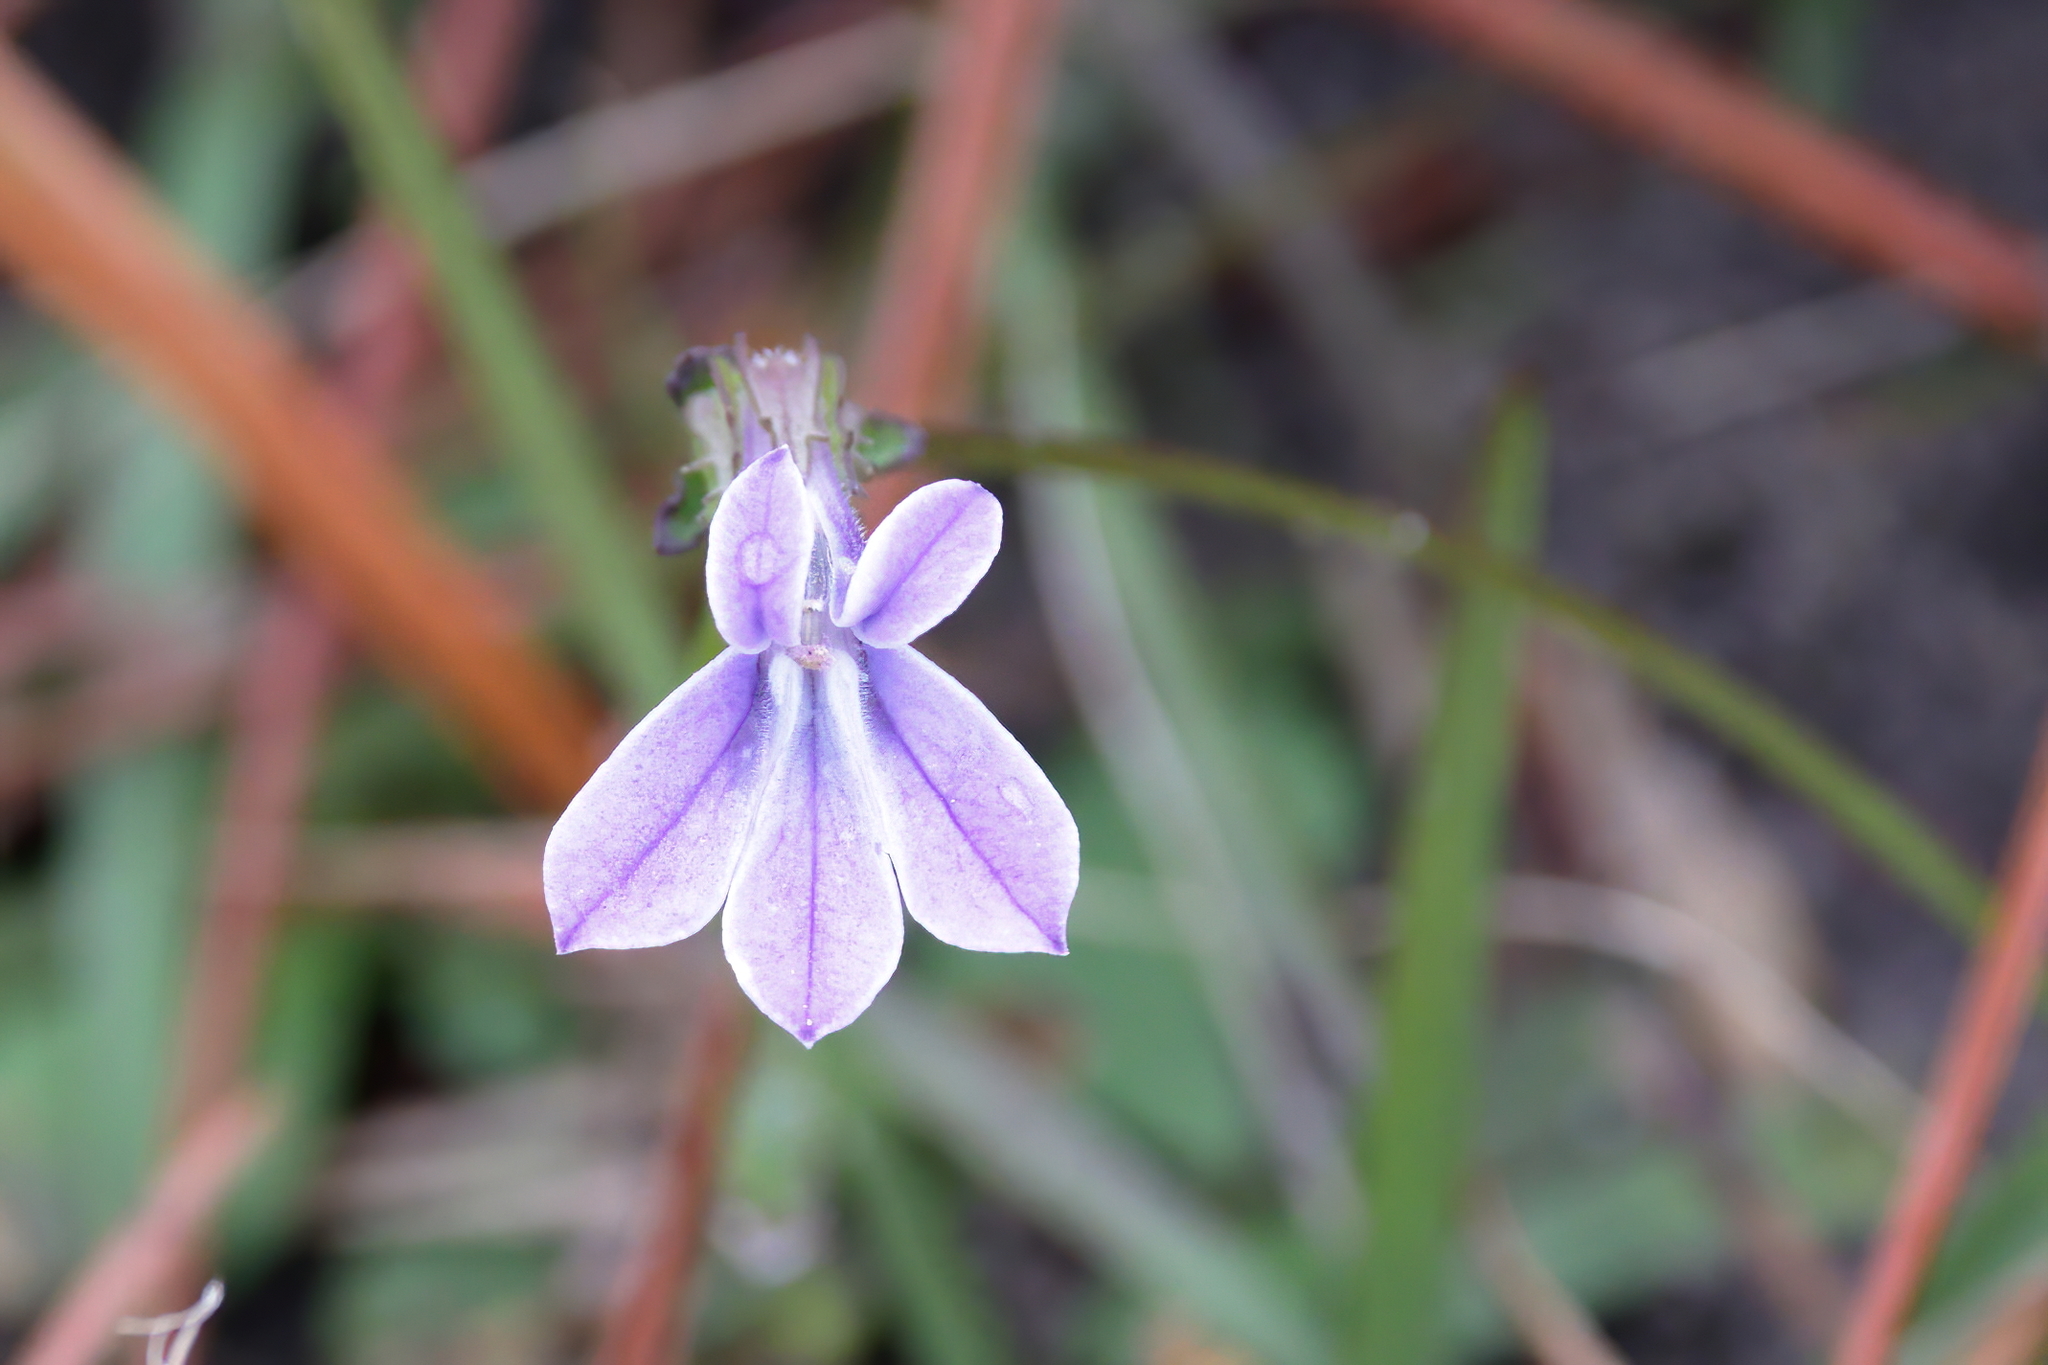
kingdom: Plantae
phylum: Tracheophyta
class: Magnoliopsida
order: Asterales
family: Campanulaceae
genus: Lobelia
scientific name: Lobelia brevifolia
